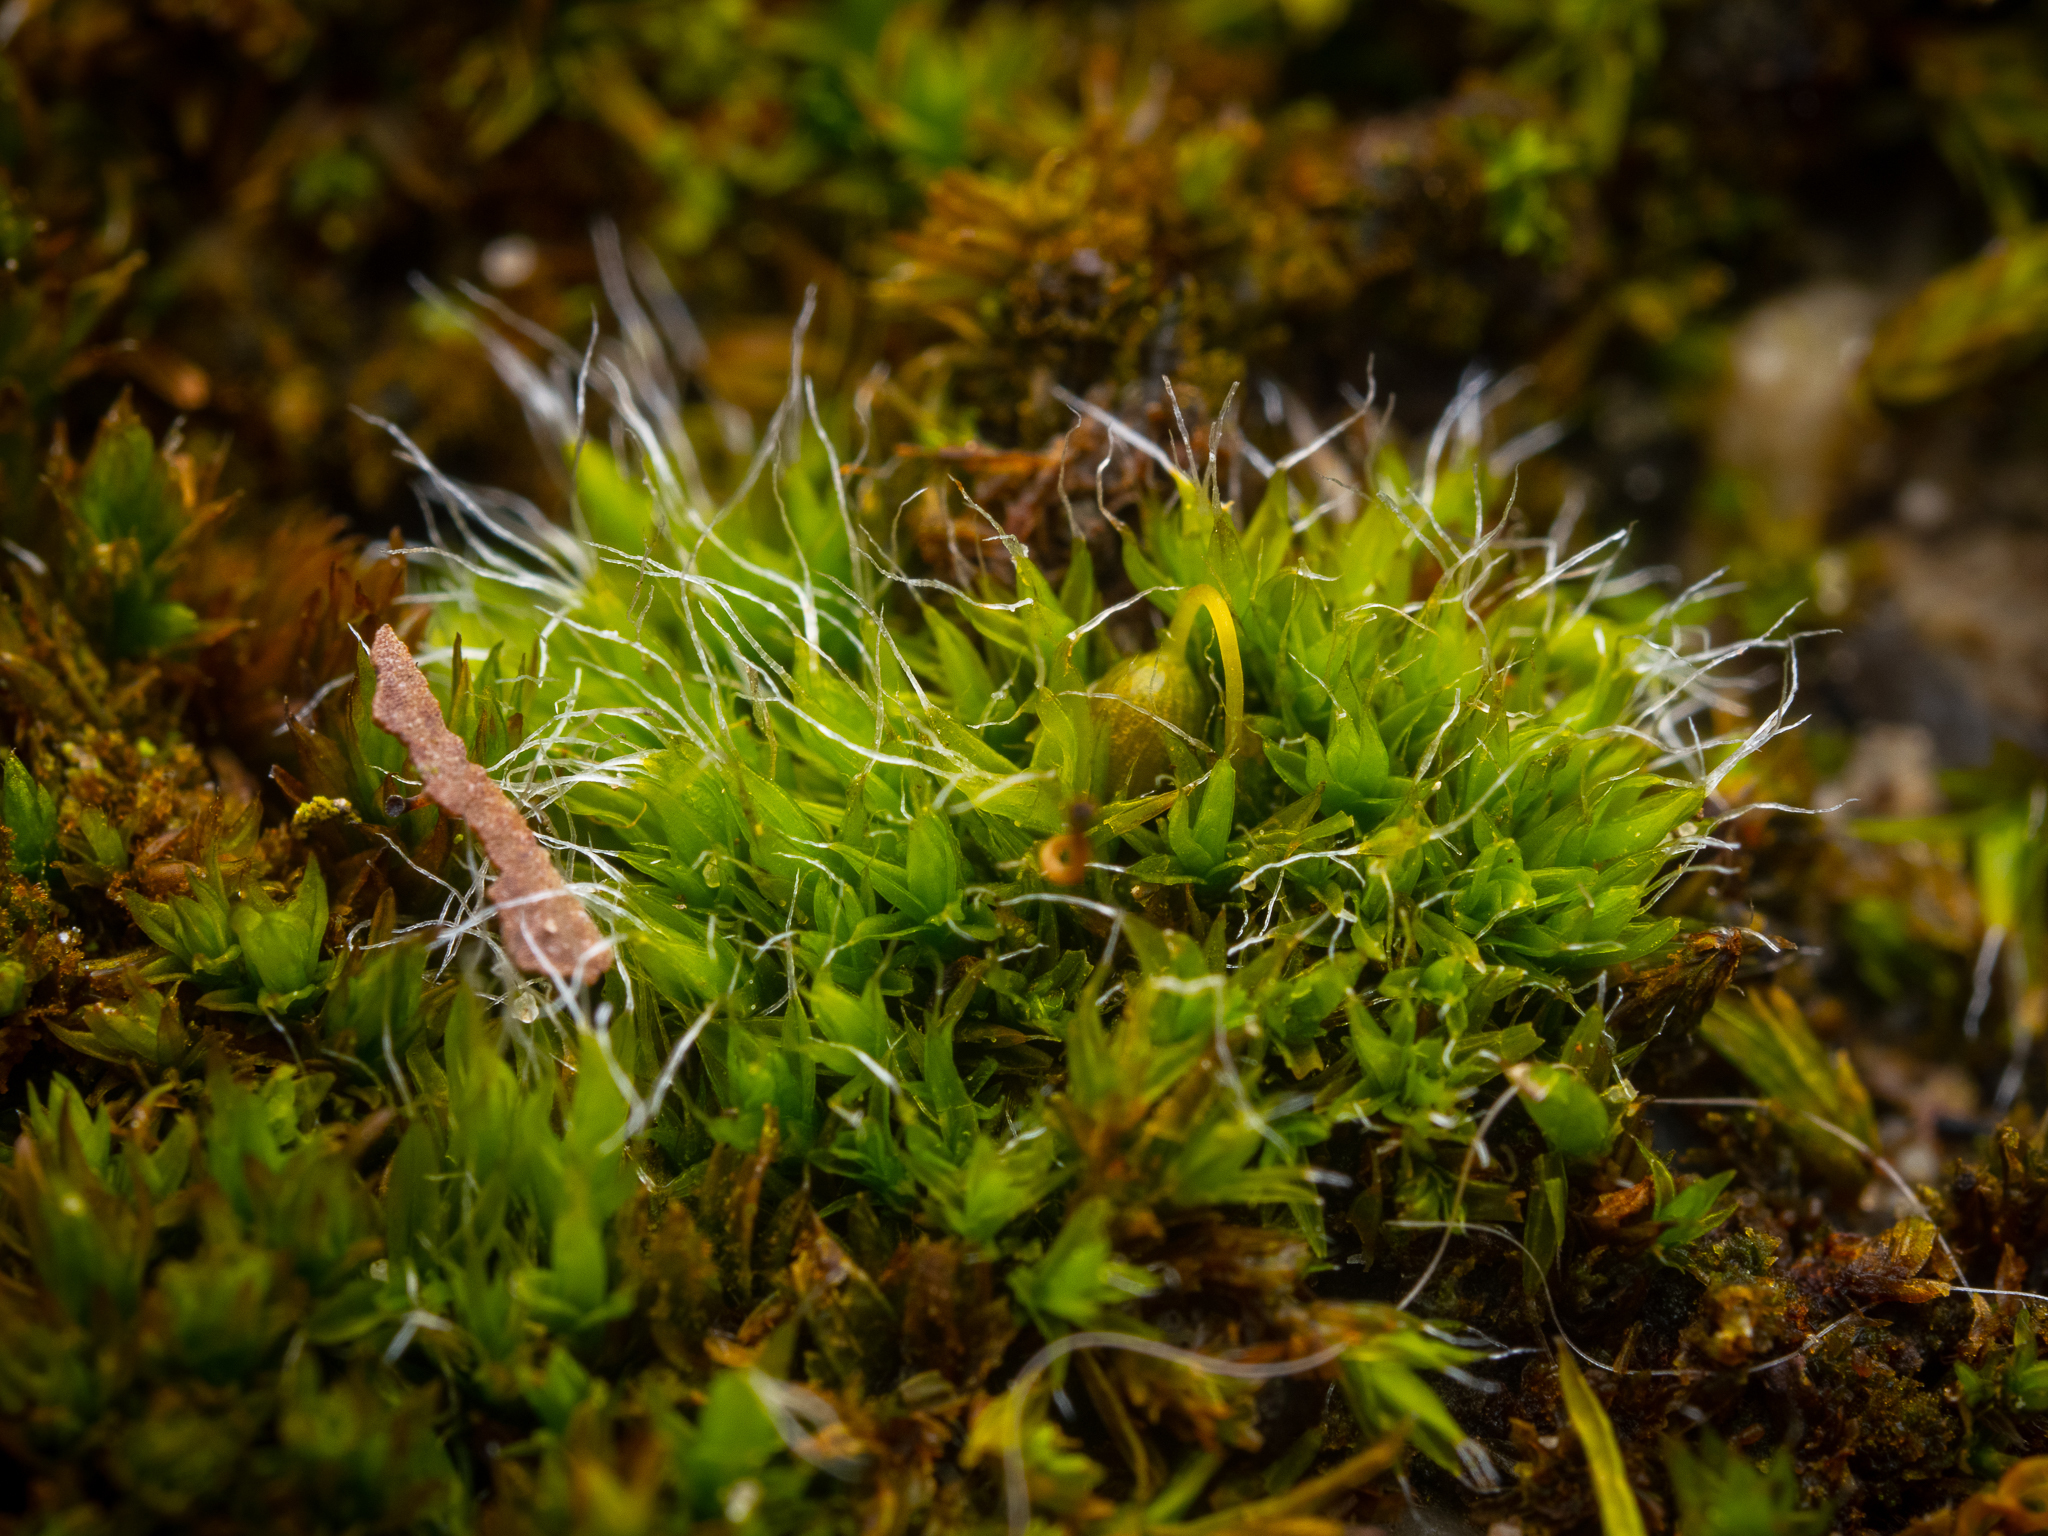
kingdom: Plantae
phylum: Bryophyta
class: Bryopsida
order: Grimmiales
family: Grimmiaceae
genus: Grimmia
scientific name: Grimmia pulvinata
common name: Grey-cushioned grimmia
